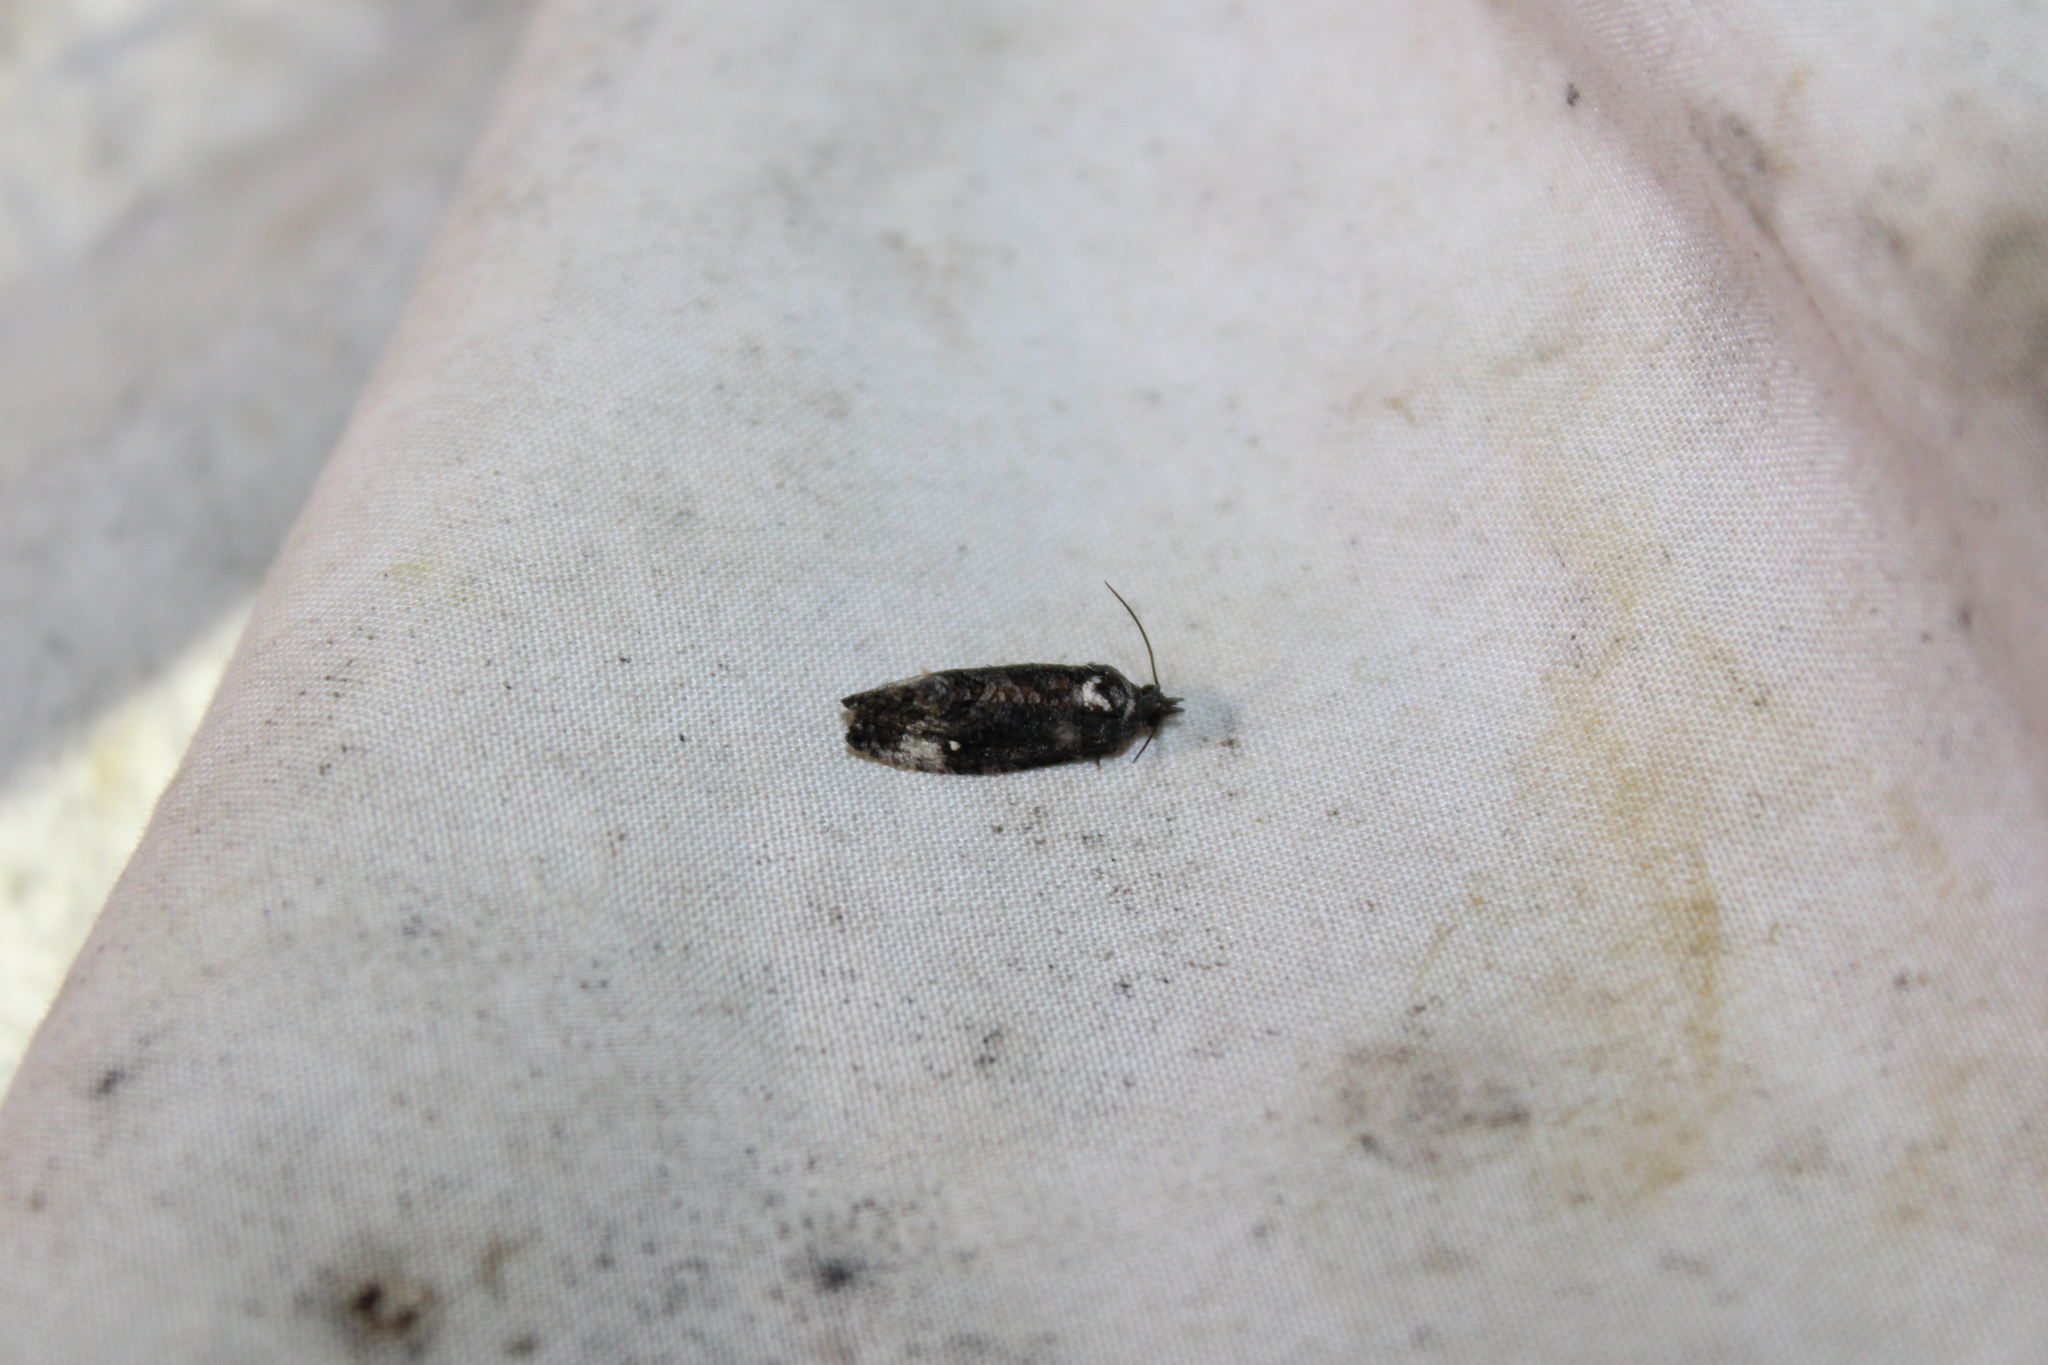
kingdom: Animalia
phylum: Arthropoda
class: Insecta
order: Lepidoptera
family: Tortricidae
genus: Gymnandrosoma
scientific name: Gymnandrosoma punctidiscanum
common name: Dotted ecdytolopha moth
